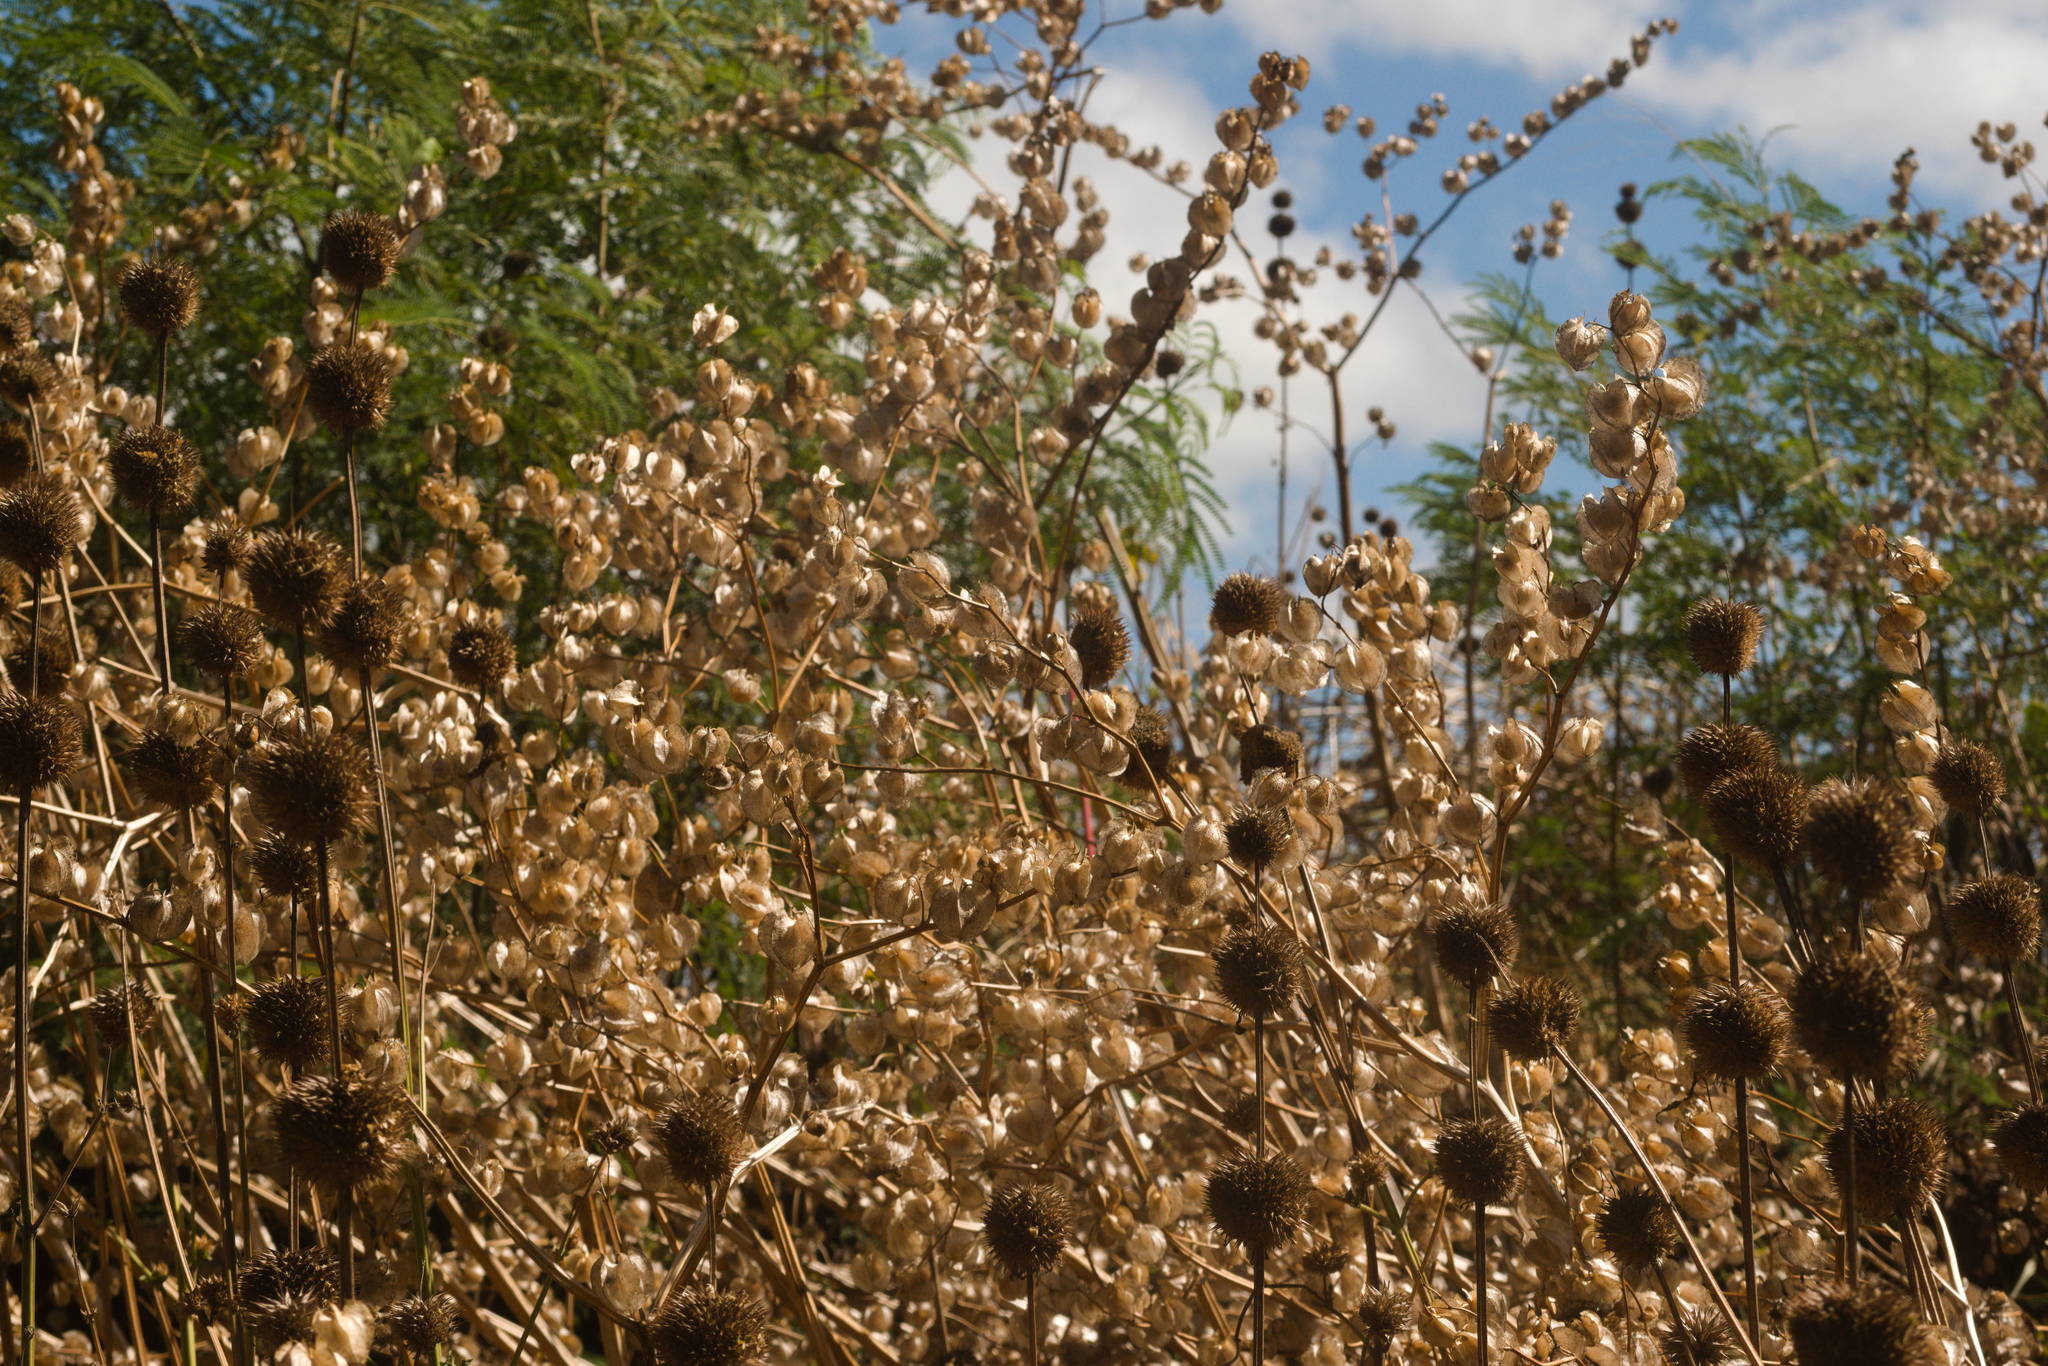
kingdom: Plantae
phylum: Tracheophyta
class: Magnoliopsida
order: Lamiales
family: Lamiaceae
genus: Leonotis
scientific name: Leonotis nepetifolia
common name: Christmas candlestick
